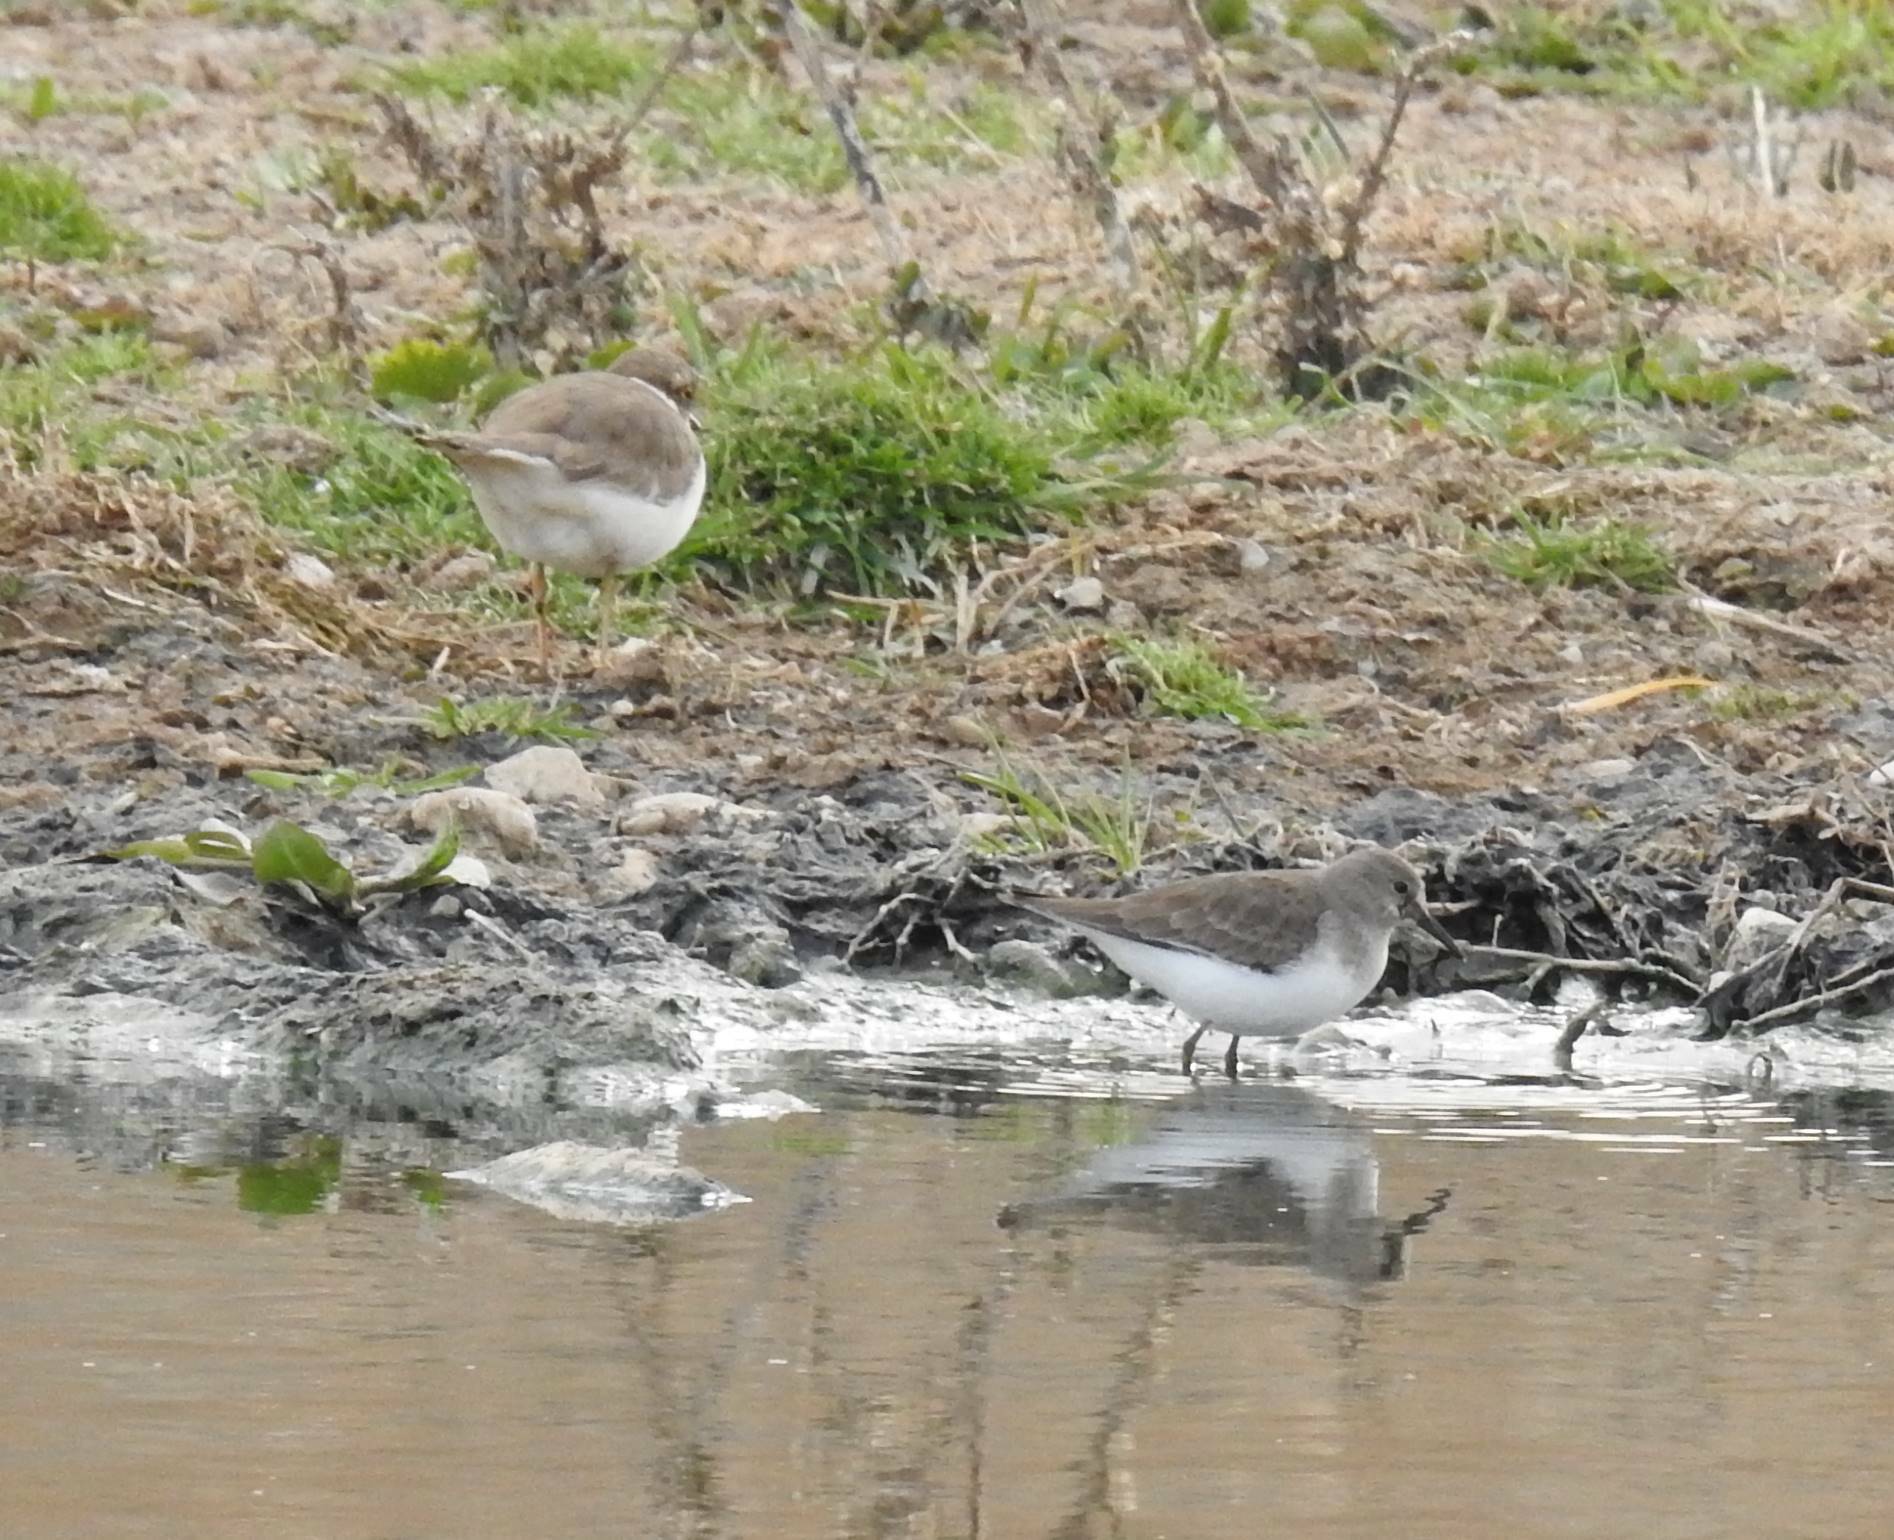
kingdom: Animalia
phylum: Chordata
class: Aves
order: Charadriiformes
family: Scolopacidae
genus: Calidris
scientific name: Calidris temminckii
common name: Temminck's stint
